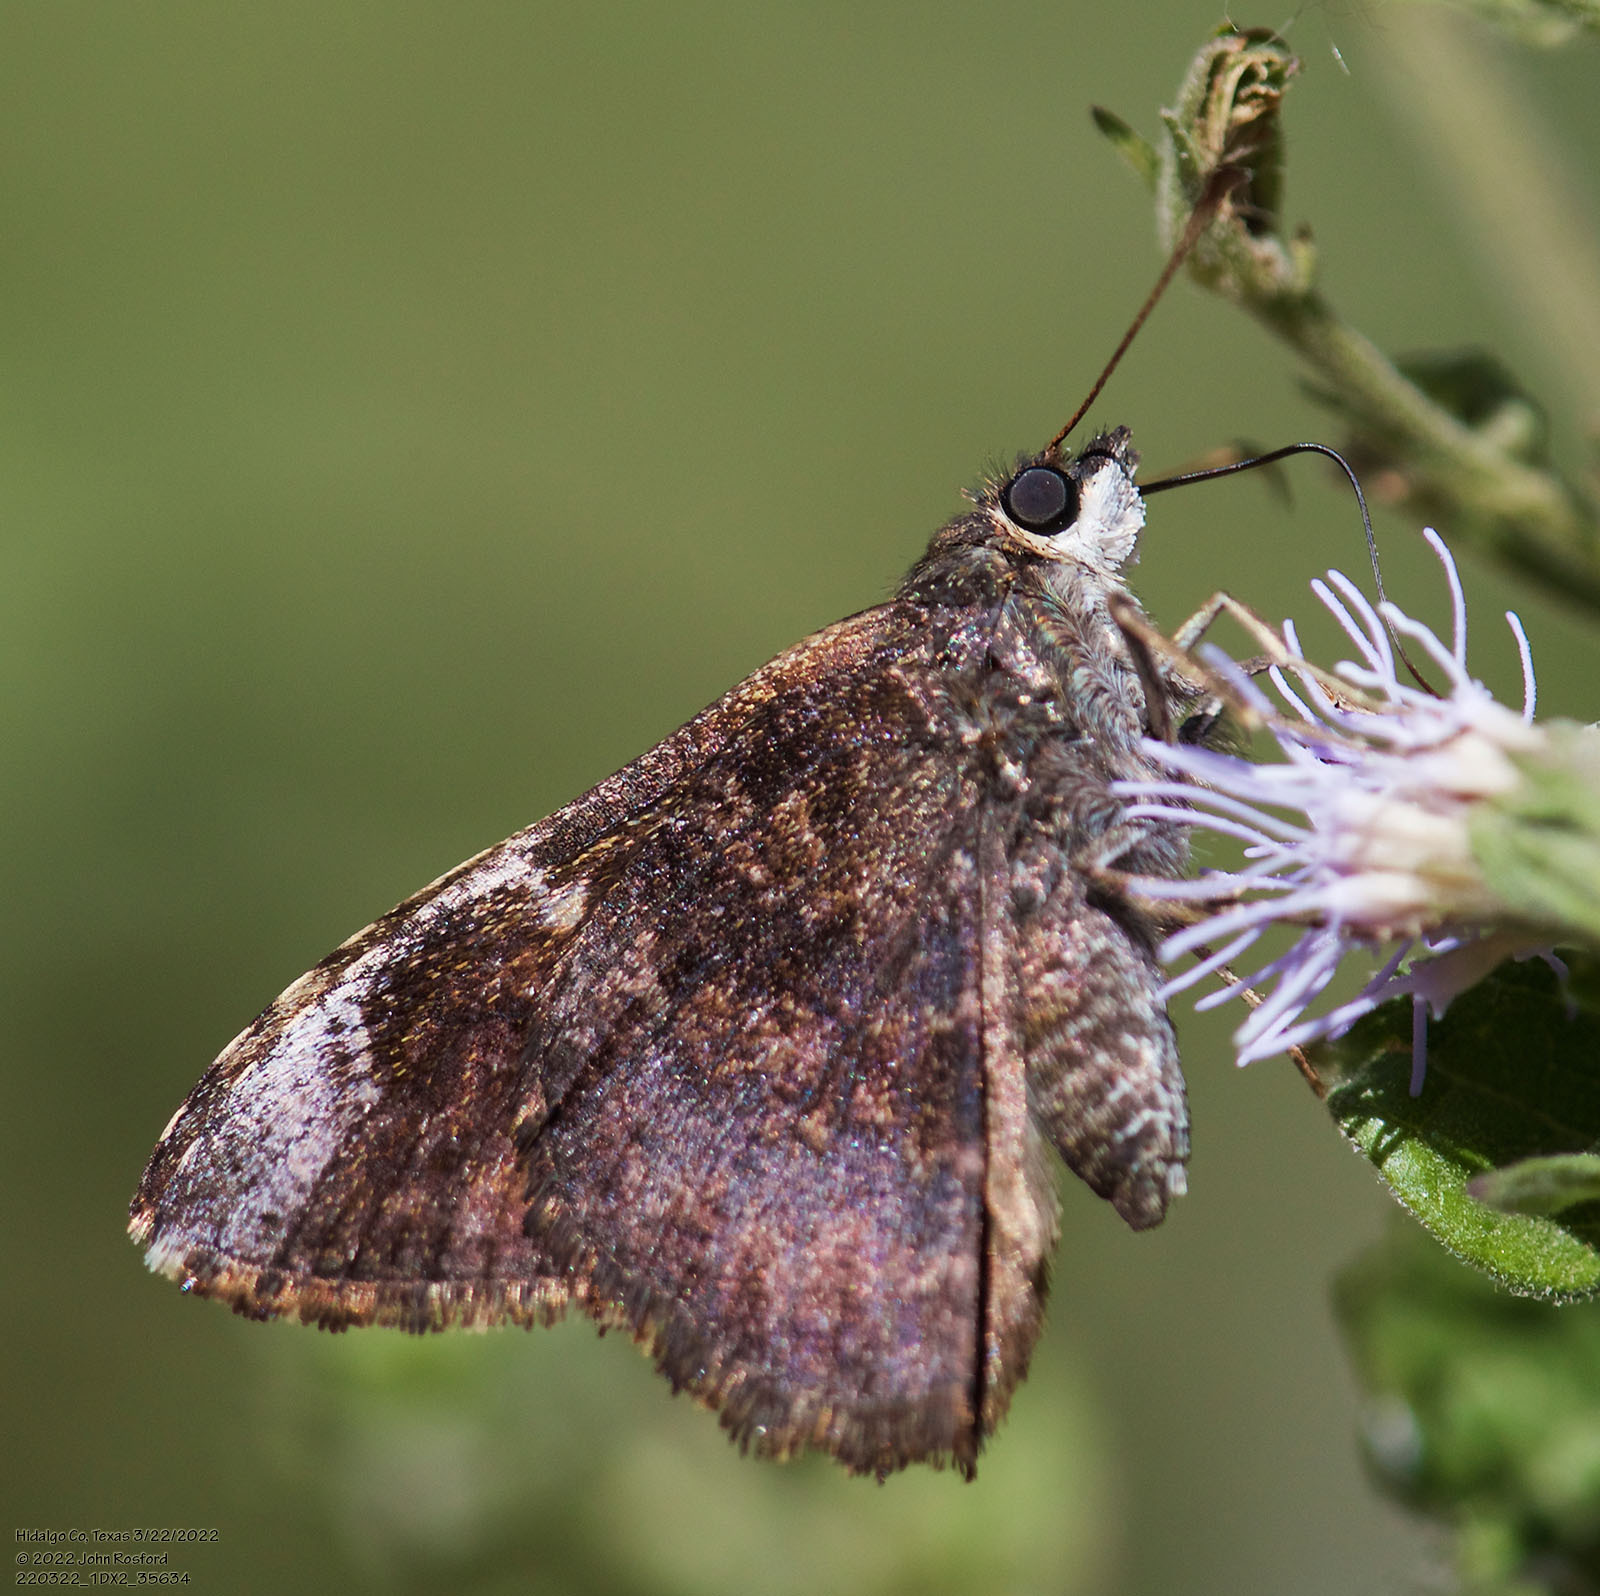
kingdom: Animalia
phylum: Arthropoda
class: Insecta
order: Lepidoptera
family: Hesperiidae
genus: Caicella
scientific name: Caicella calchas
